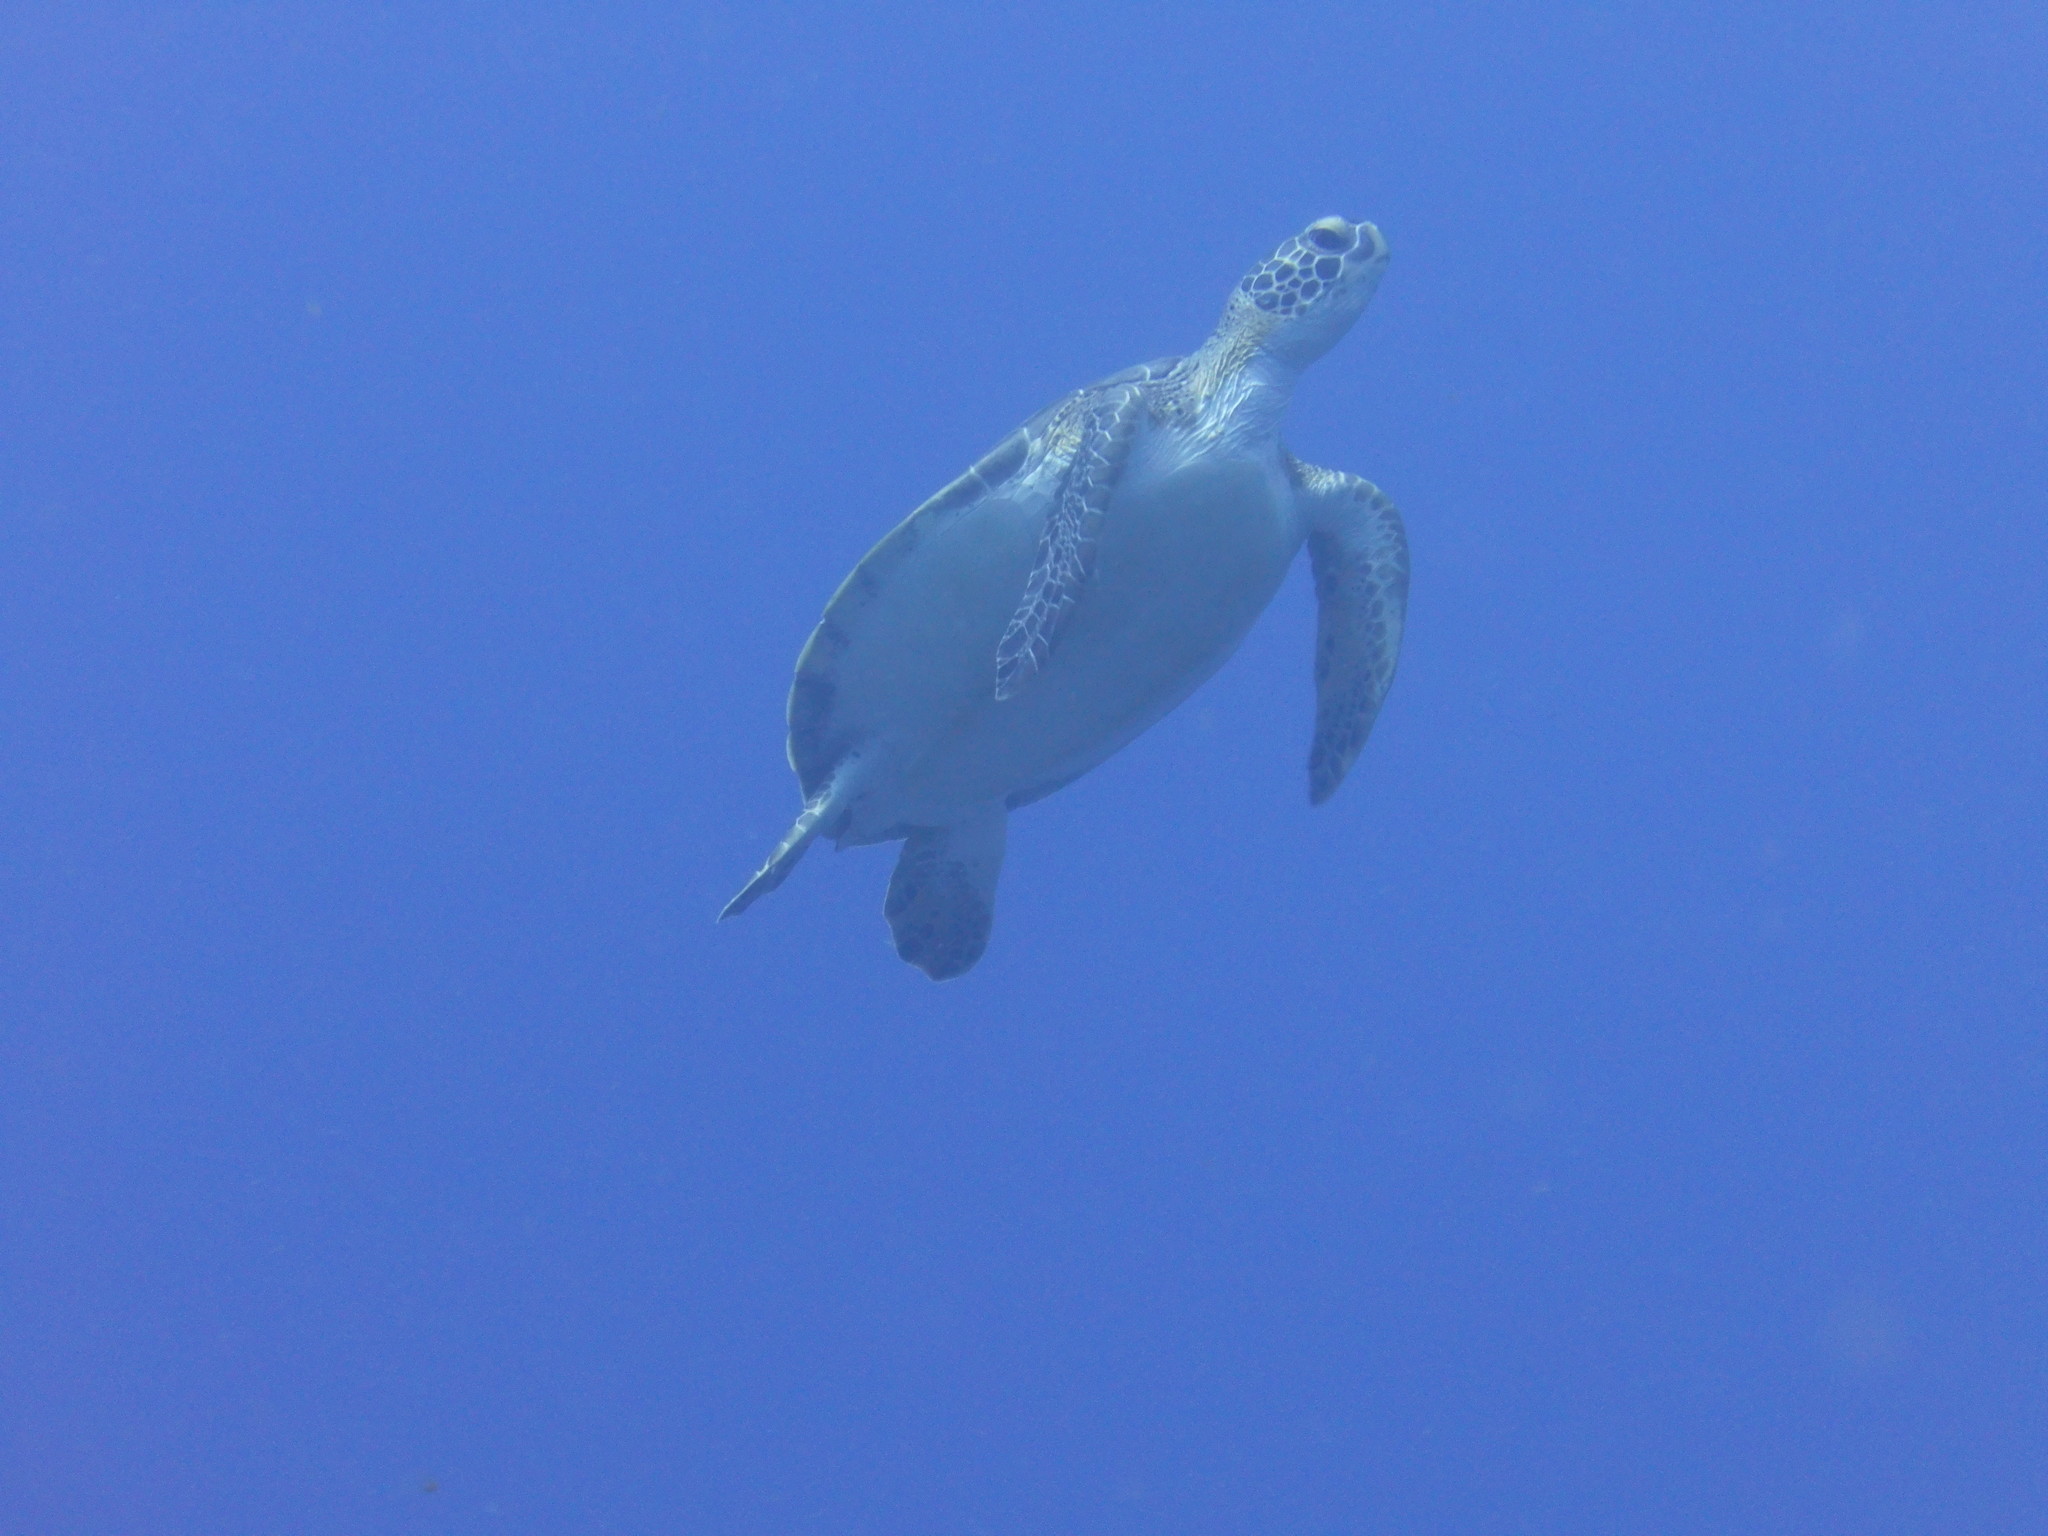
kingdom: Animalia
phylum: Chordata
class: Testudines
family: Cheloniidae
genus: Chelonia
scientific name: Chelonia mydas
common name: Green turtle
